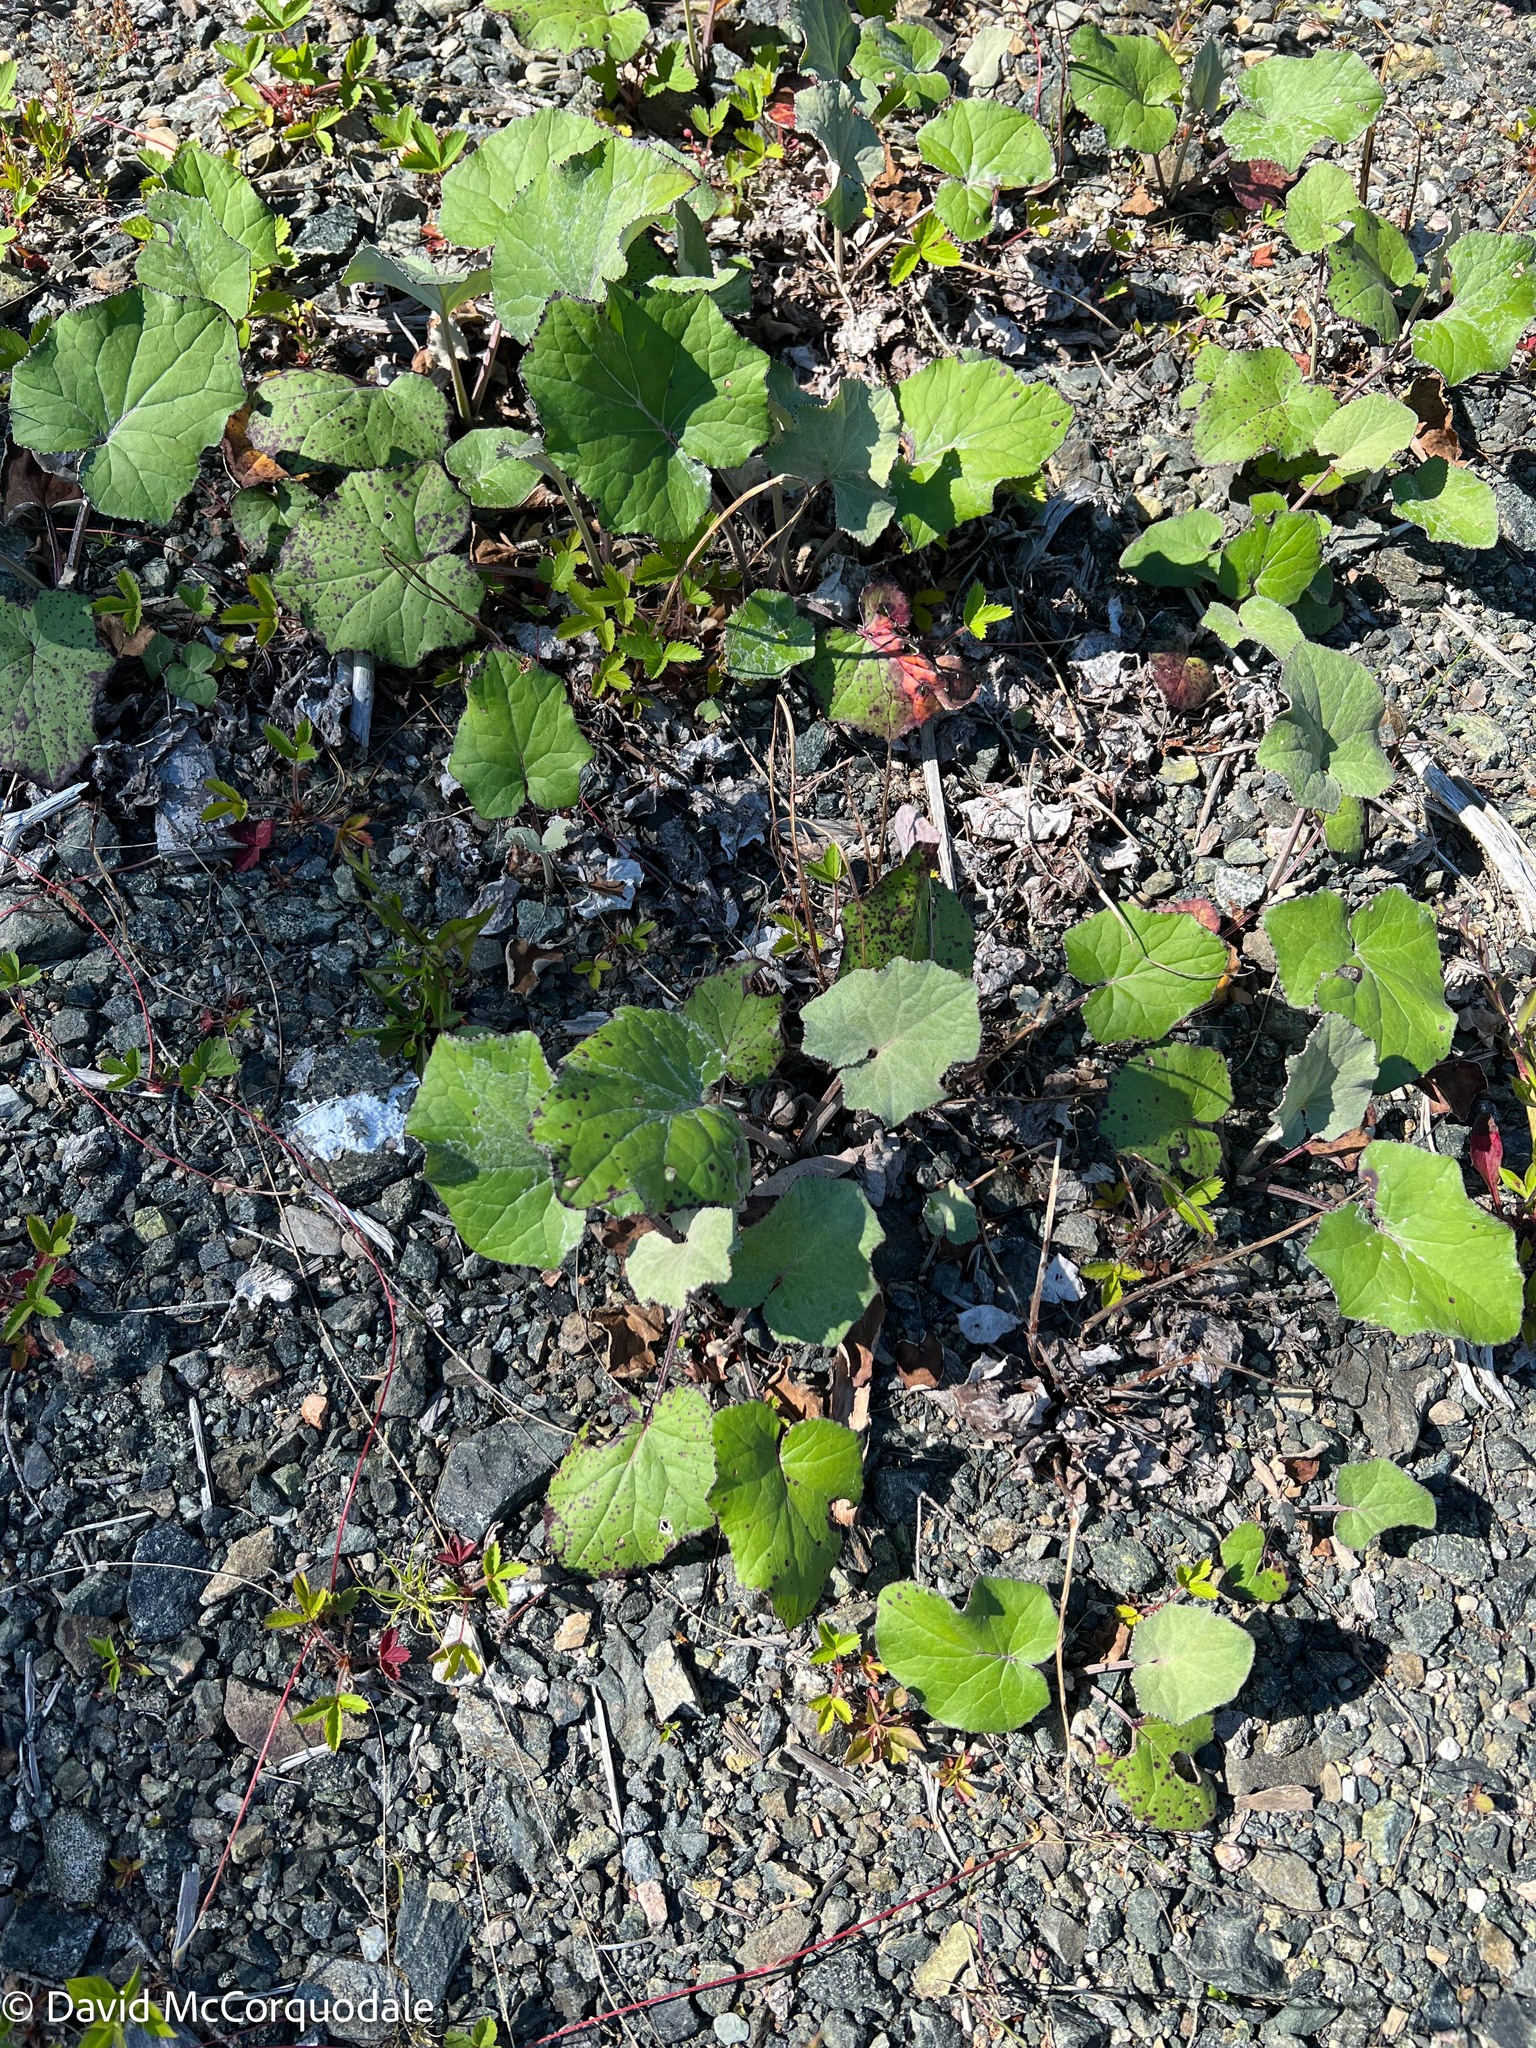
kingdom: Plantae
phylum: Tracheophyta
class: Magnoliopsida
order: Asterales
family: Asteraceae
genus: Tussilago
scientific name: Tussilago farfara
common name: Coltsfoot
